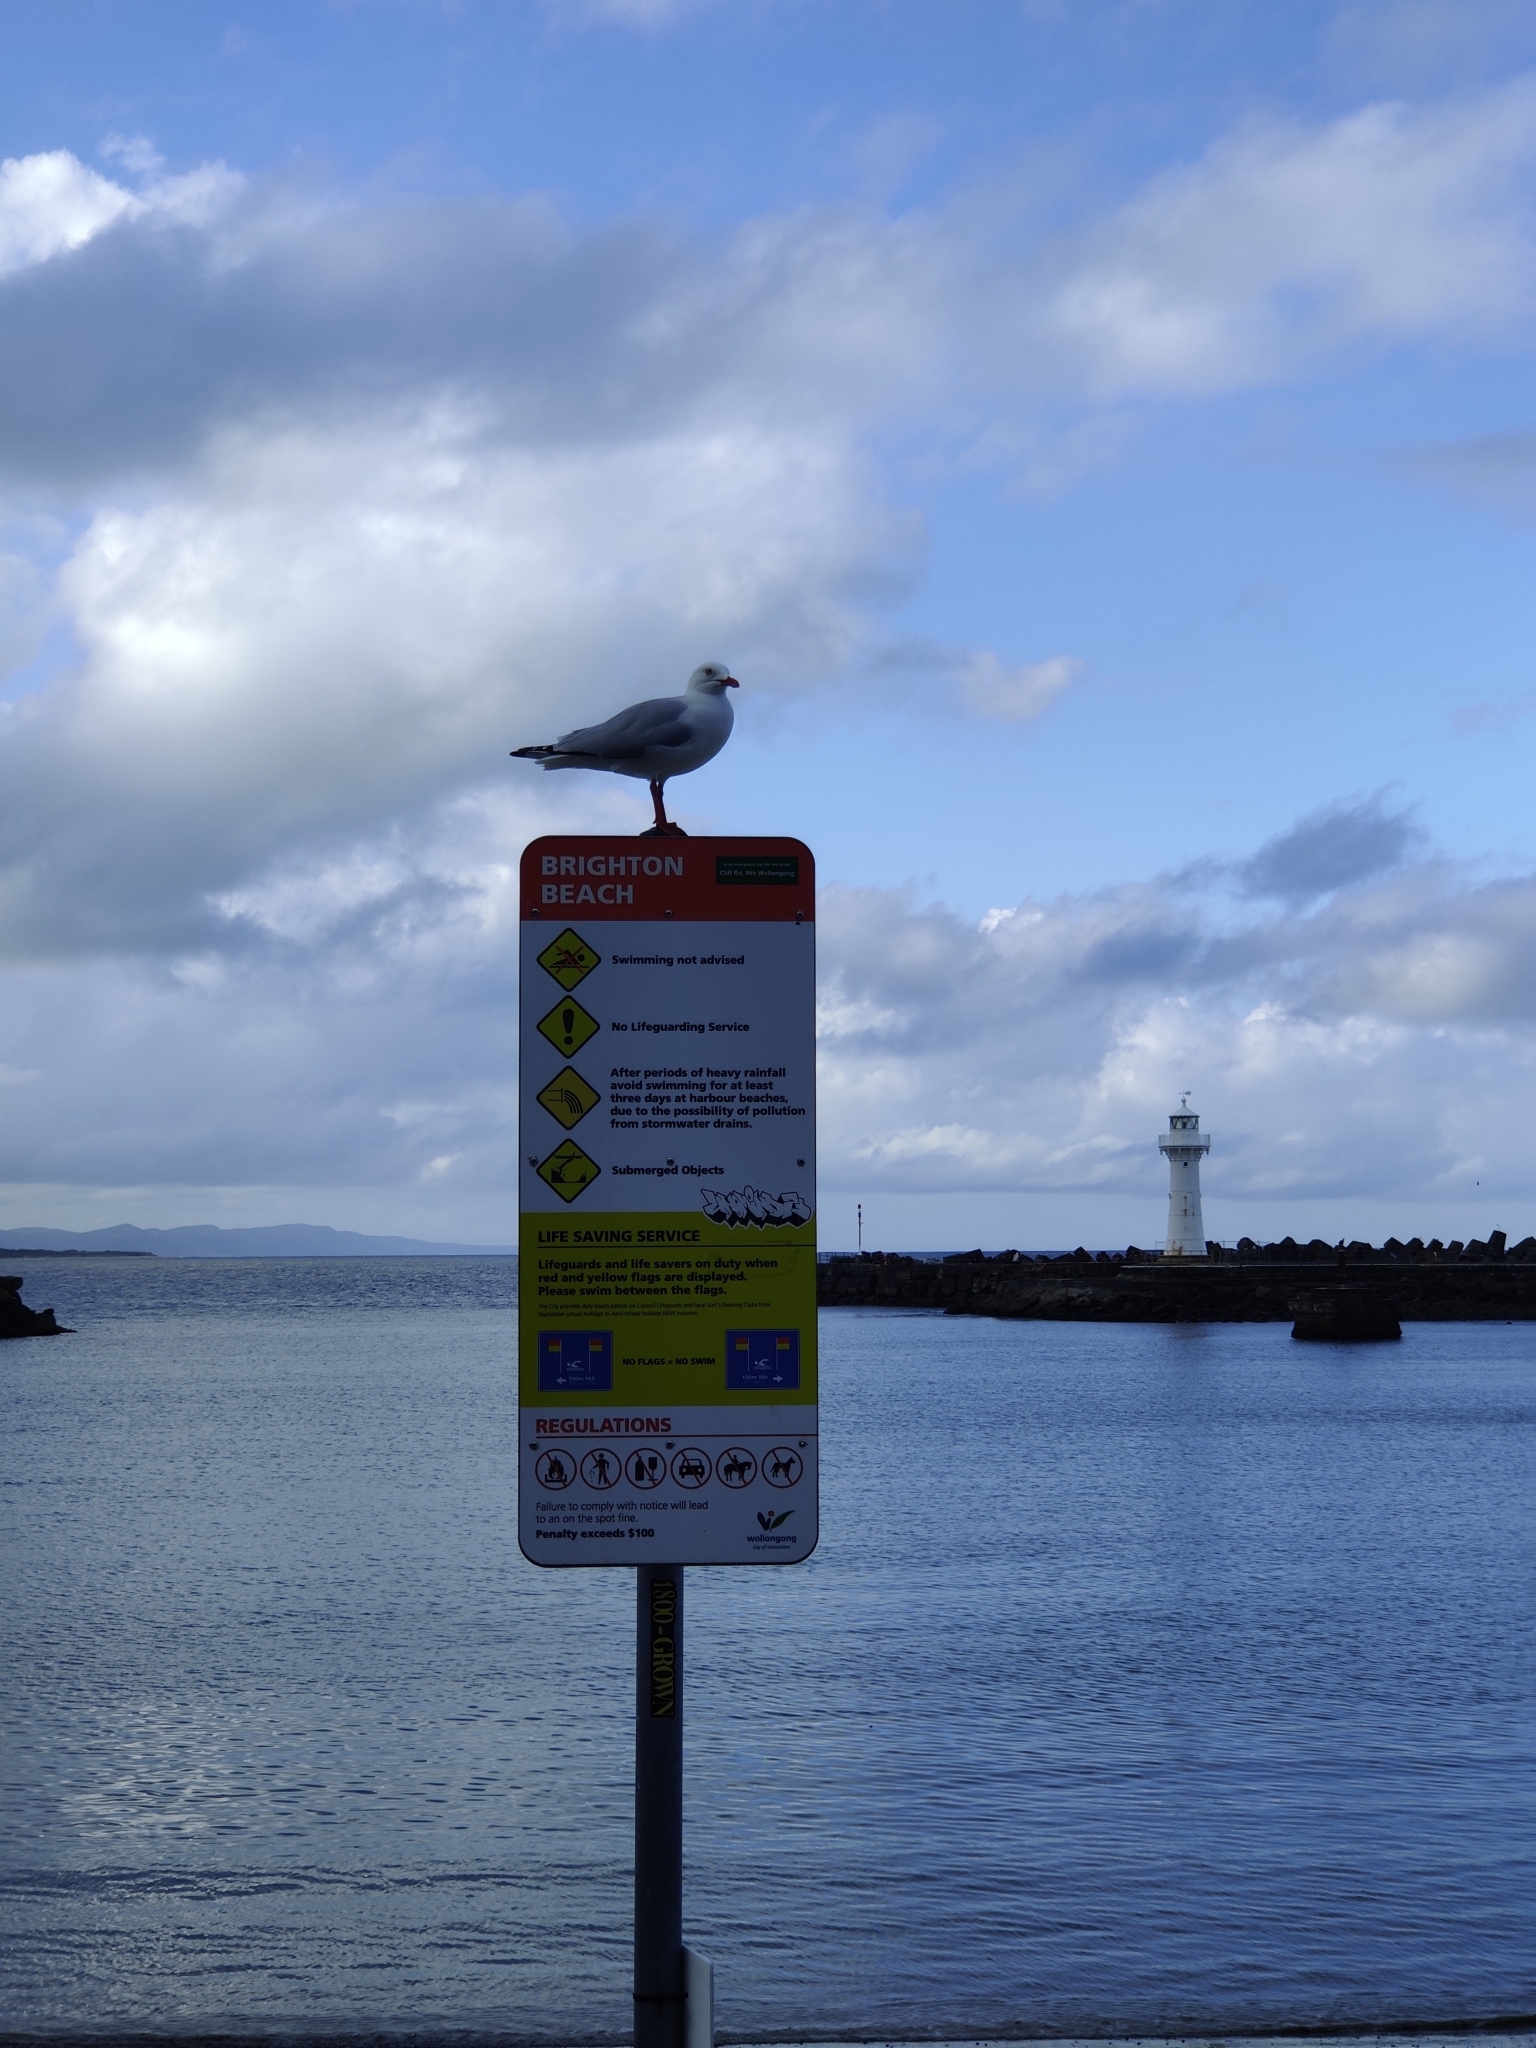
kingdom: Animalia
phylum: Chordata
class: Aves
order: Charadriiformes
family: Laridae
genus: Chroicocephalus
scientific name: Chroicocephalus novaehollandiae
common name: Silver gull
